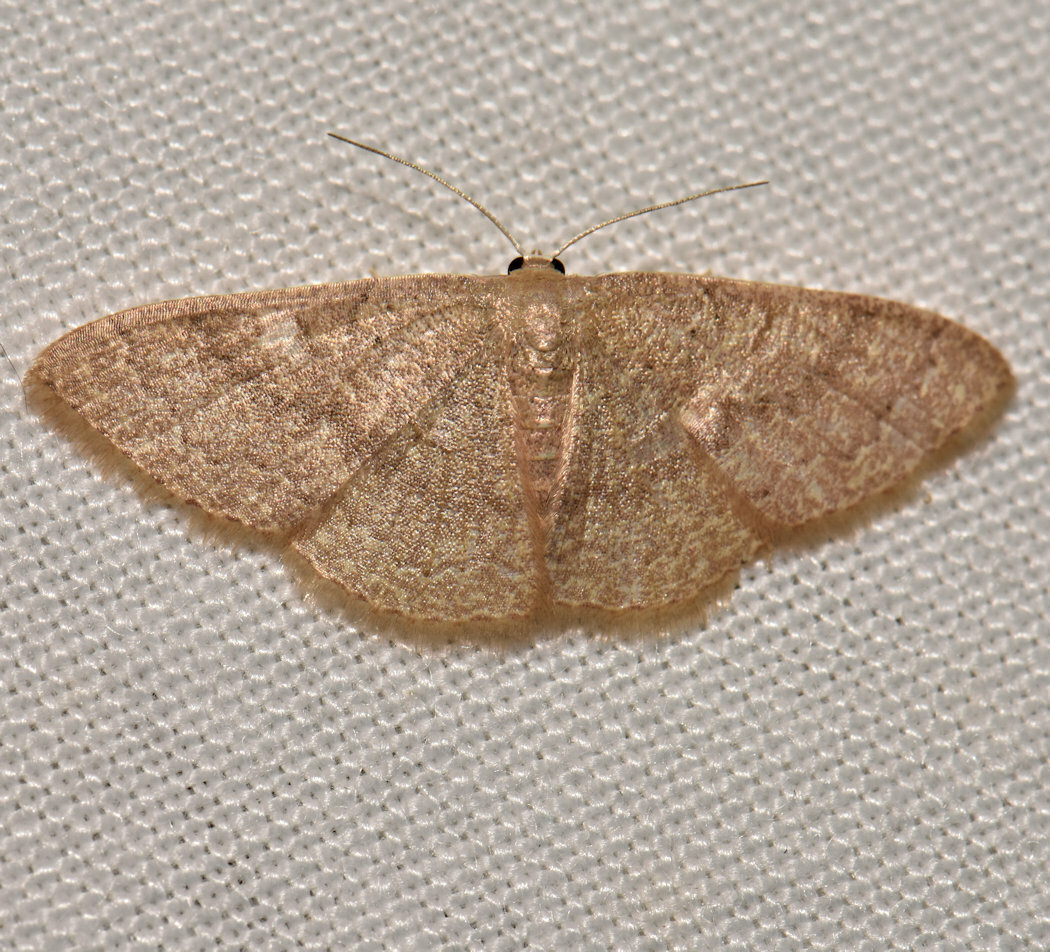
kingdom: Animalia
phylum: Arthropoda
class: Insecta
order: Lepidoptera
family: Geometridae
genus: Pleuroprucha
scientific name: Pleuroprucha insulsaria
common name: Common tan wave
